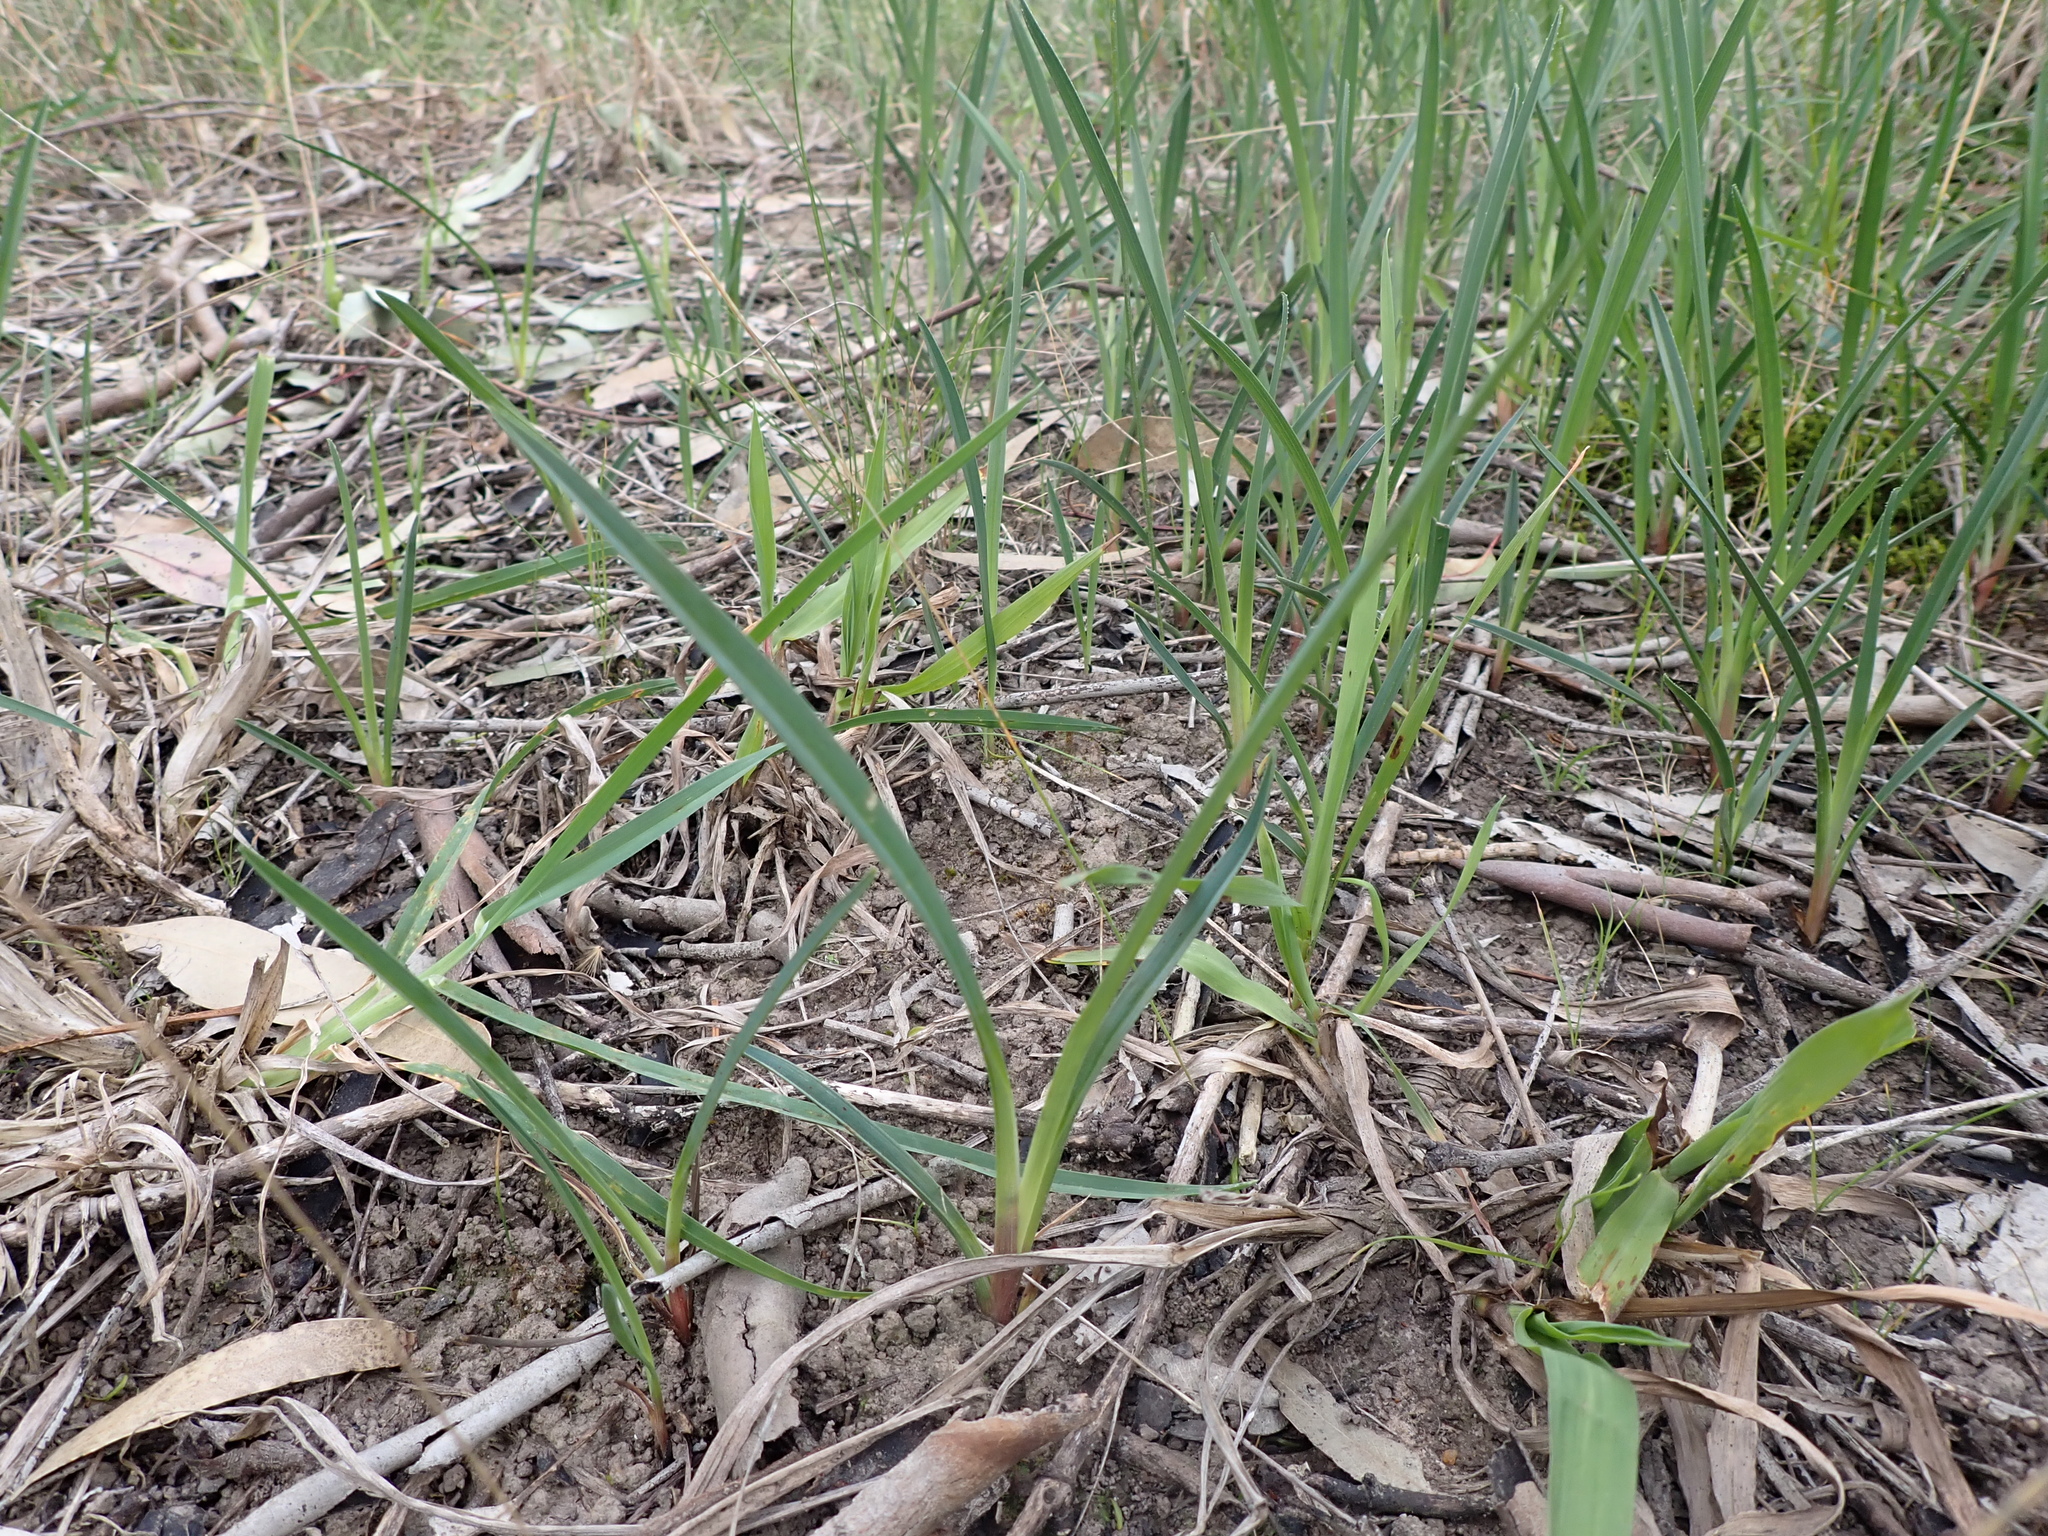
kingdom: Plantae
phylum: Tracheophyta
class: Liliopsida
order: Asparagales
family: Asphodelaceae
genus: Dianella
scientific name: Dianella amoena
